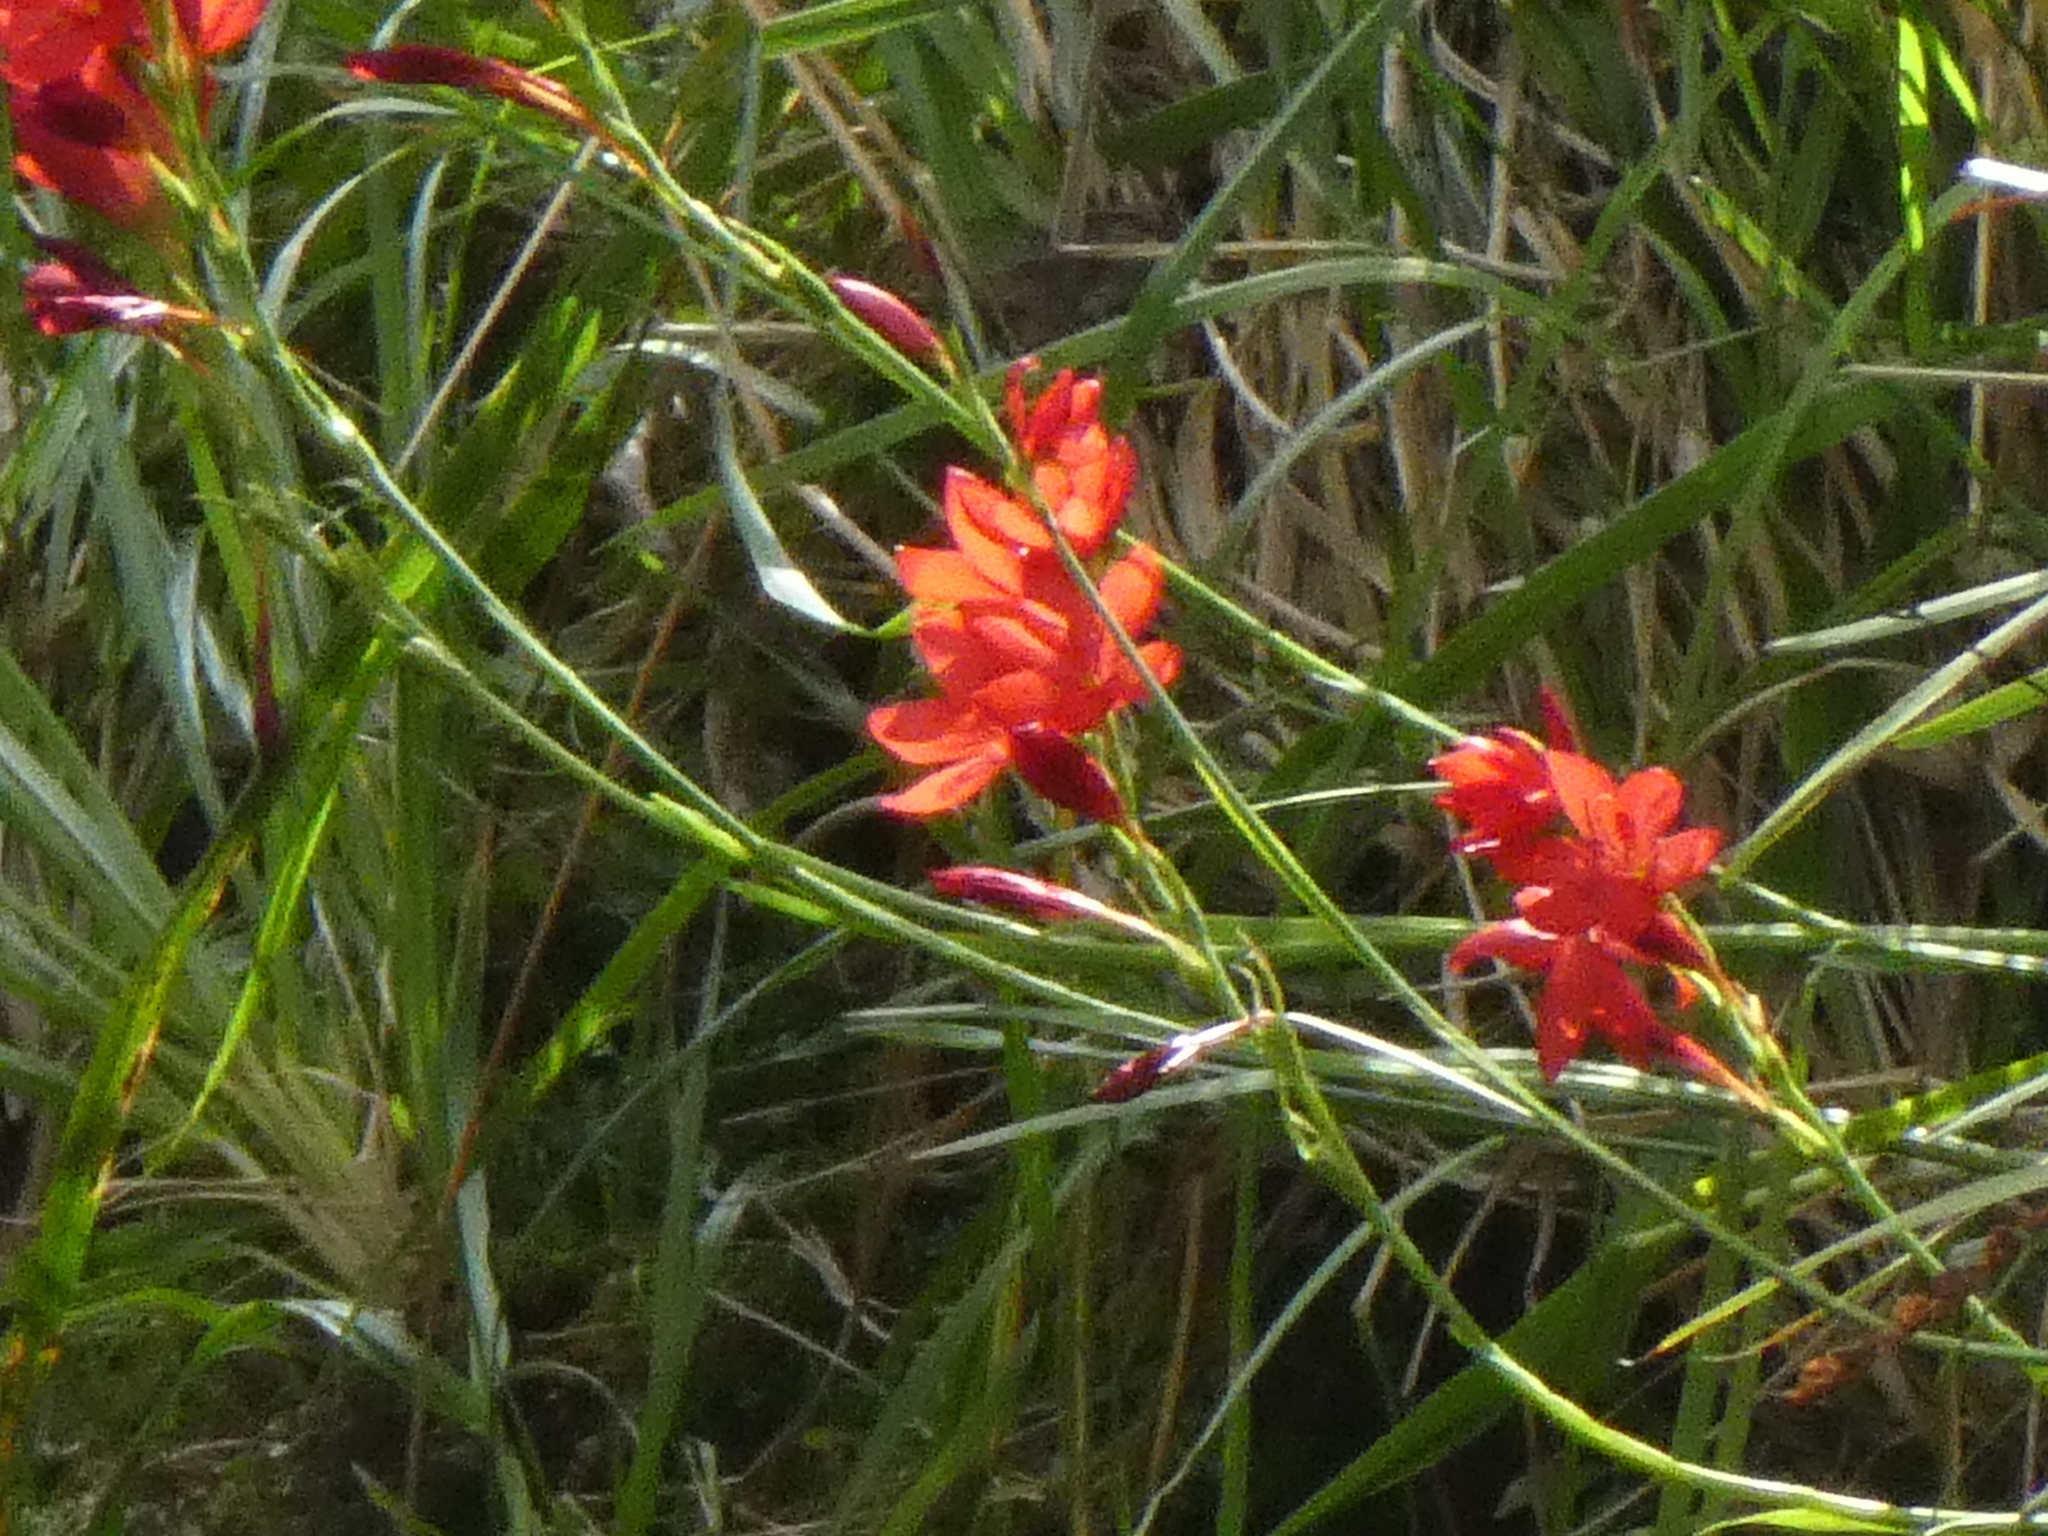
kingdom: Plantae
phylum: Tracheophyta
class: Liliopsida
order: Asparagales
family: Iridaceae
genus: Hesperantha
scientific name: Hesperantha coccinea
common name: River-lily
